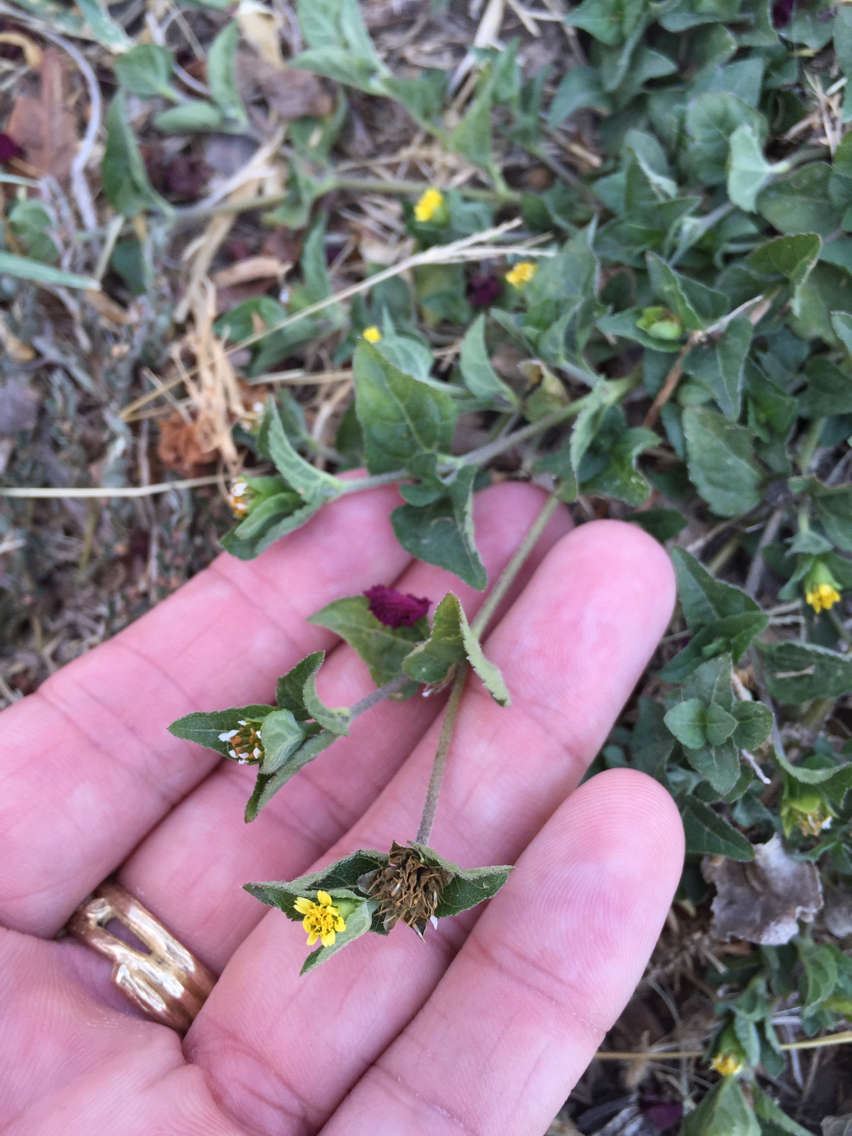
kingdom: Plantae
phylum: Tracheophyta
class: Magnoliopsida
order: Asterales
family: Asteraceae
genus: Calyptocarpus
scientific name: Calyptocarpus vialis
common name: Straggler daisy
